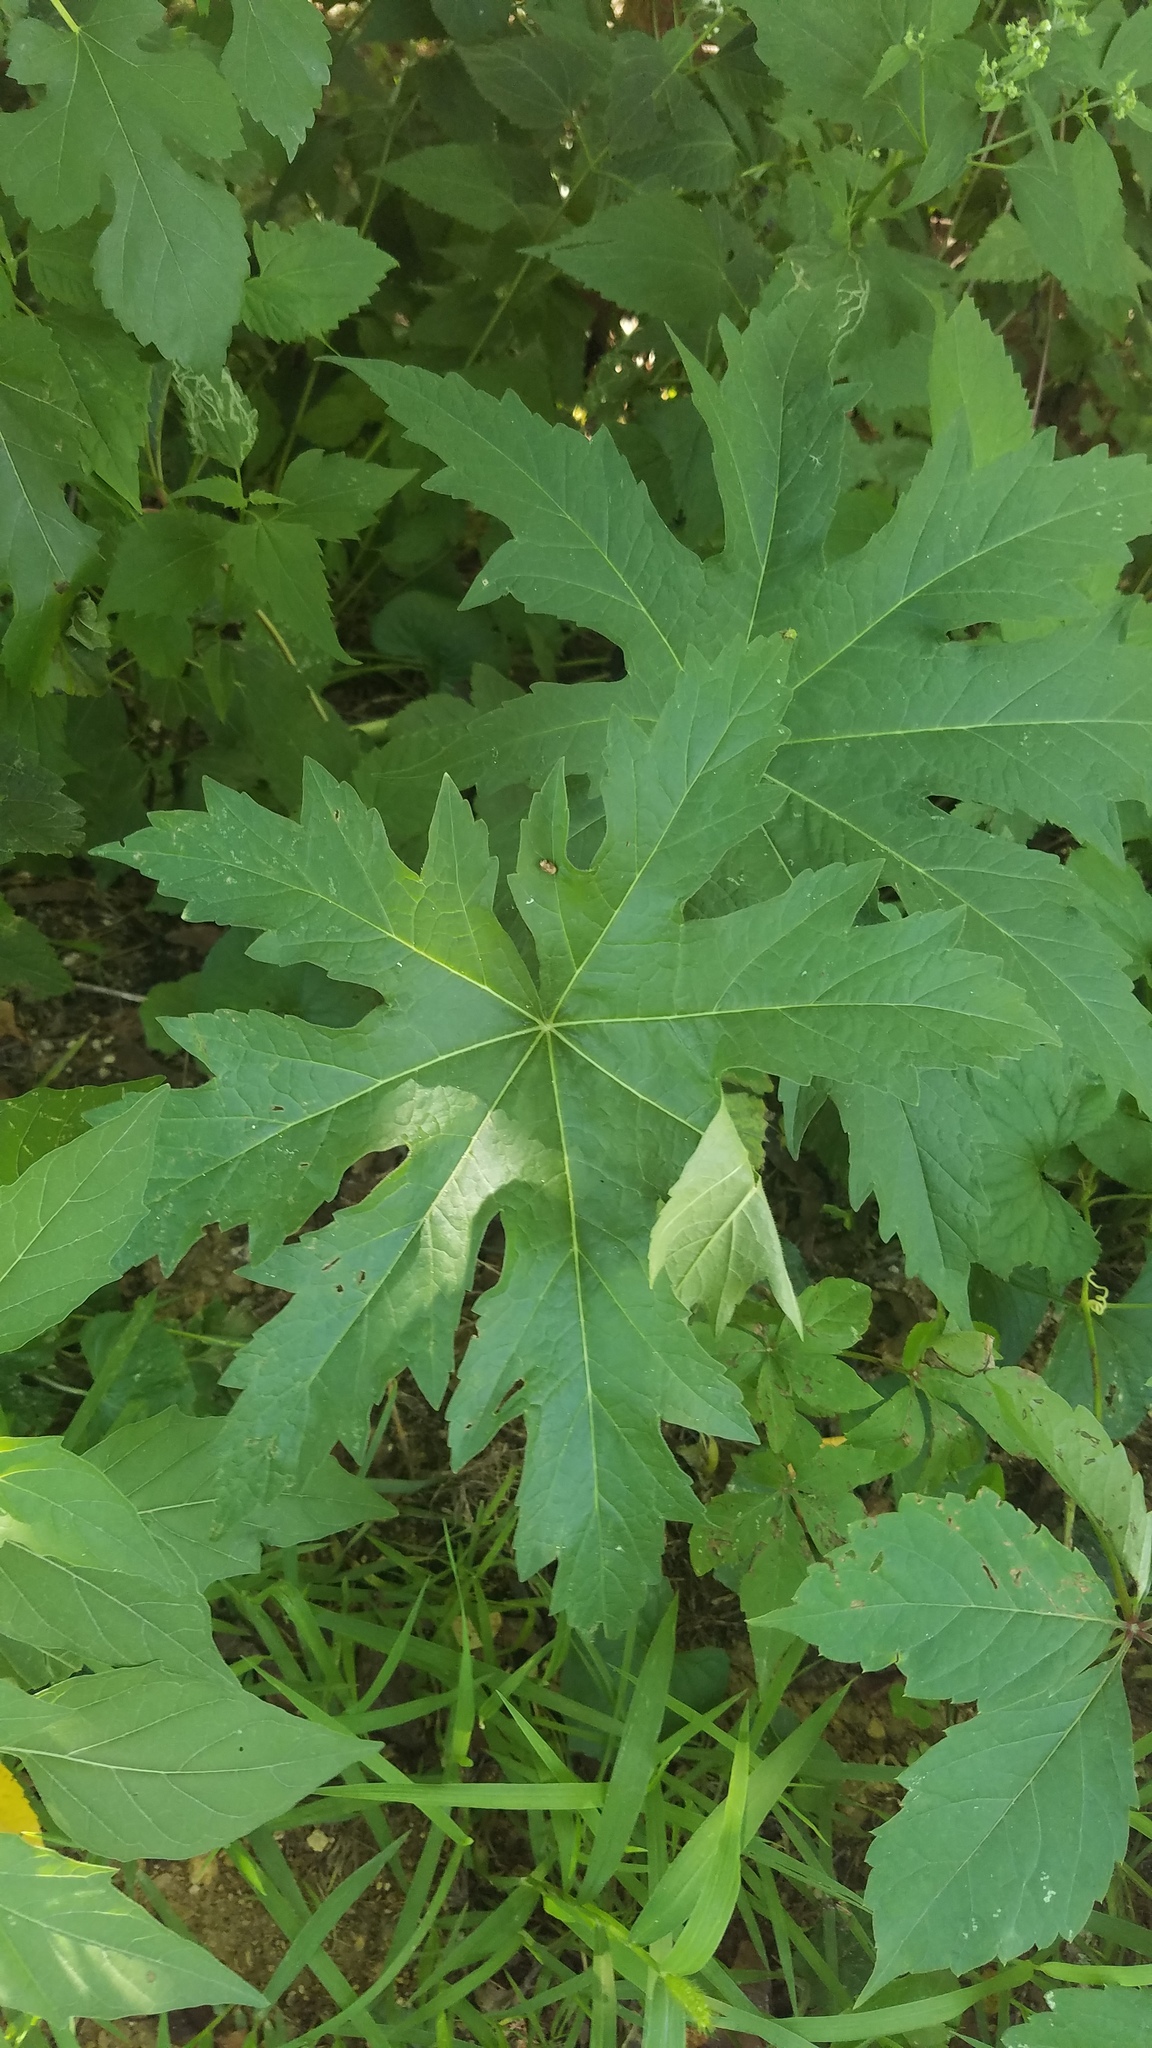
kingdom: Plantae
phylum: Tracheophyta
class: Magnoliopsida
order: Malvales
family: Malvaceae
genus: Napaea
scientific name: Napaea dioica
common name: Glade-mallow
